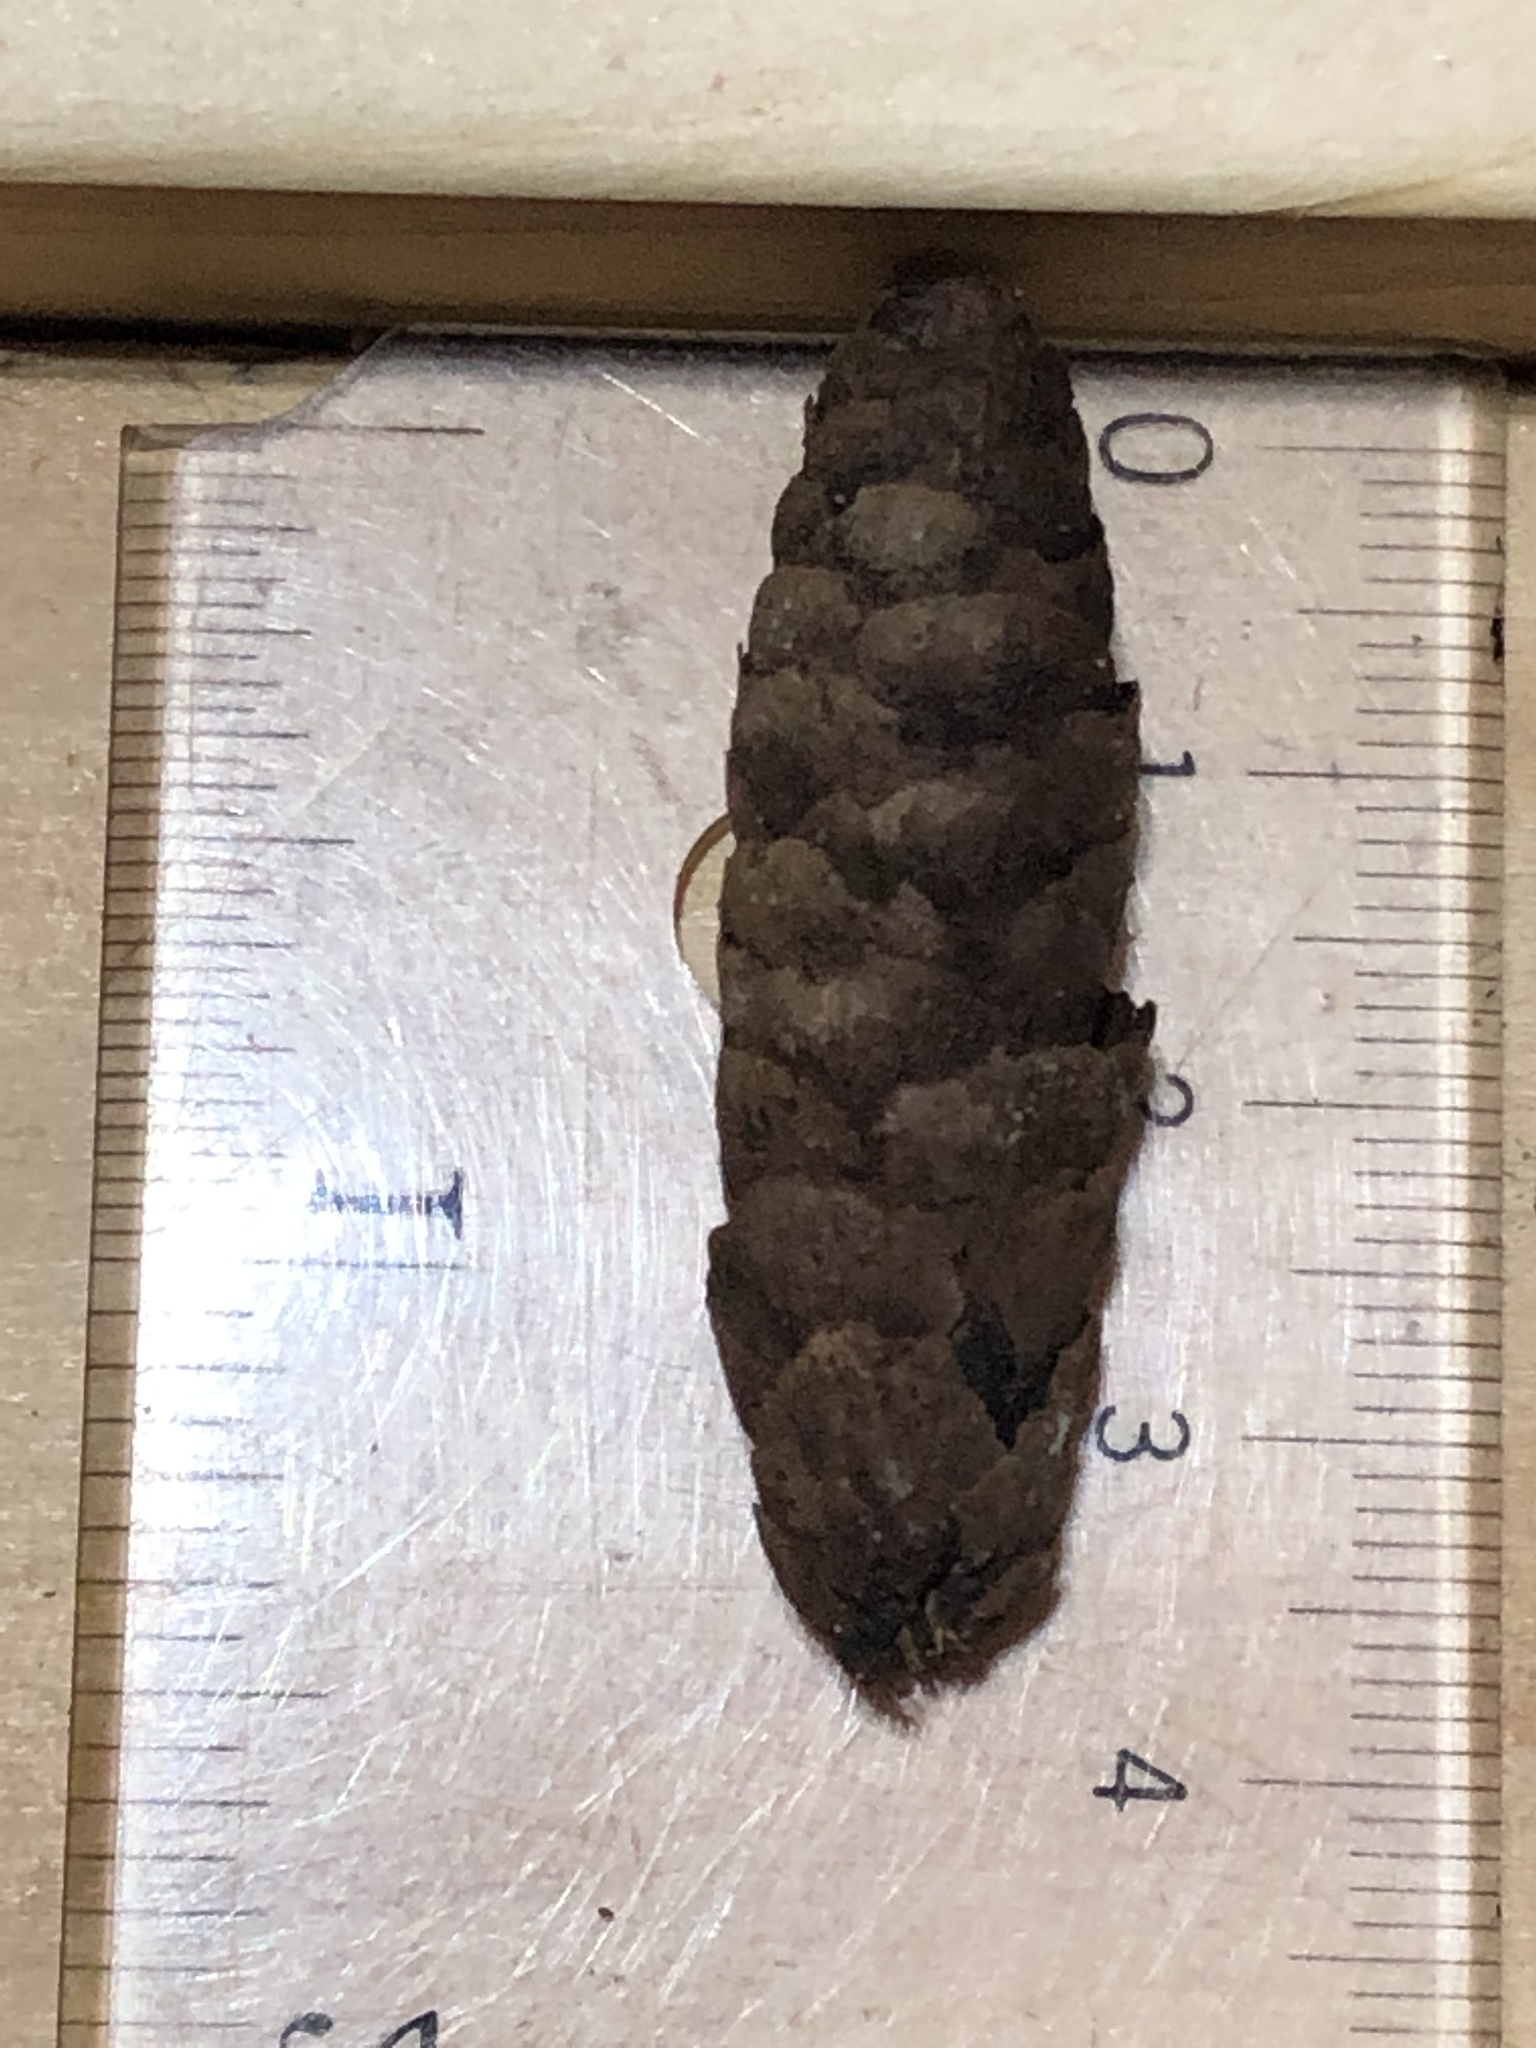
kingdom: Plantae
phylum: Tracheophyta
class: Pinopsida
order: Pinales
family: Pinaceae
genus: Picea
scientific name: Picea glauca
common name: White spruce
